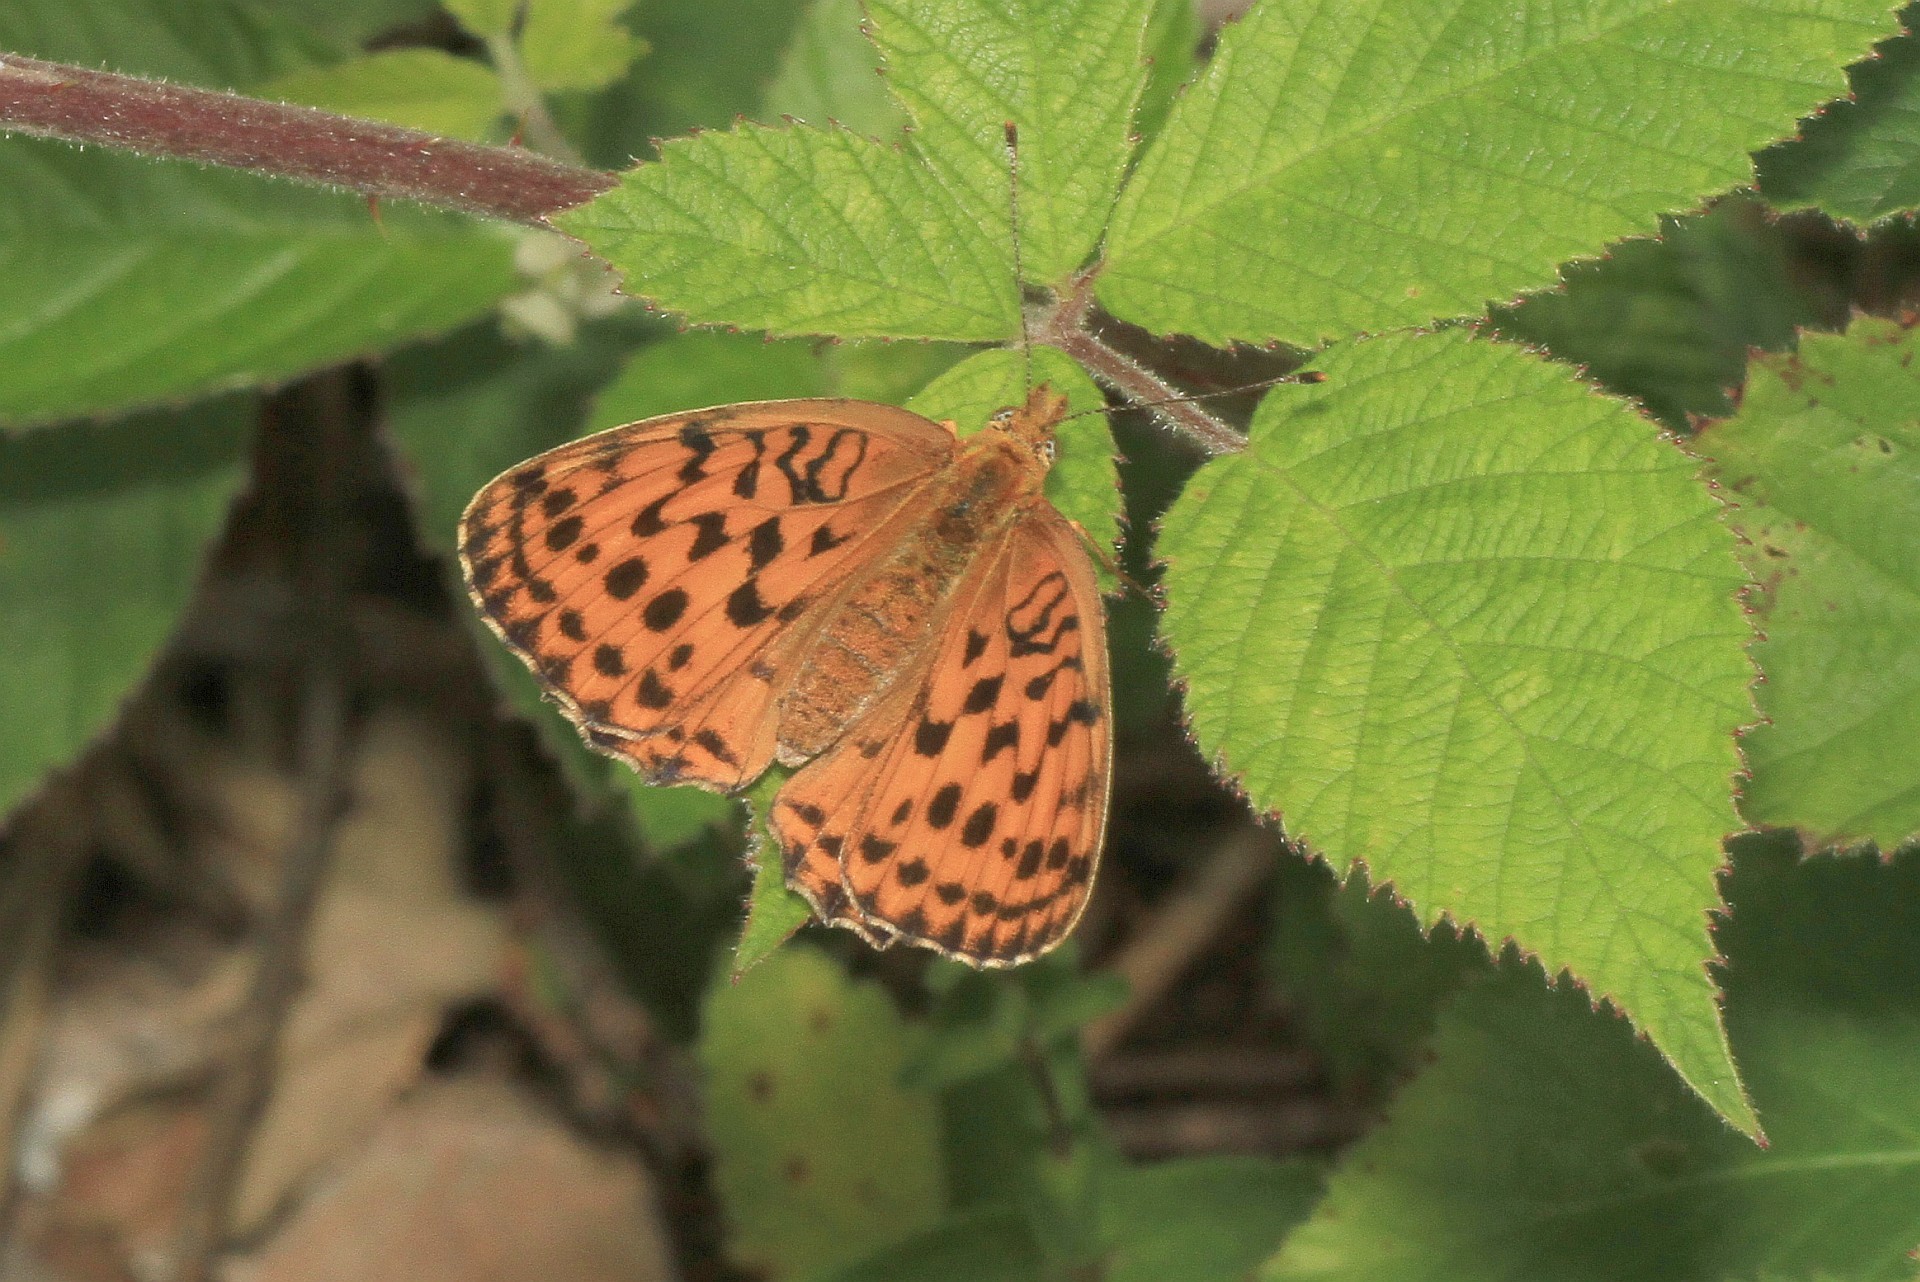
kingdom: Animalia
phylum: Arthropoda
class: Insecta
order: Lepidoptera
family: Nymphalidae
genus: Brenthis
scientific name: Brenthis daphne
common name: Marbled fritillary
